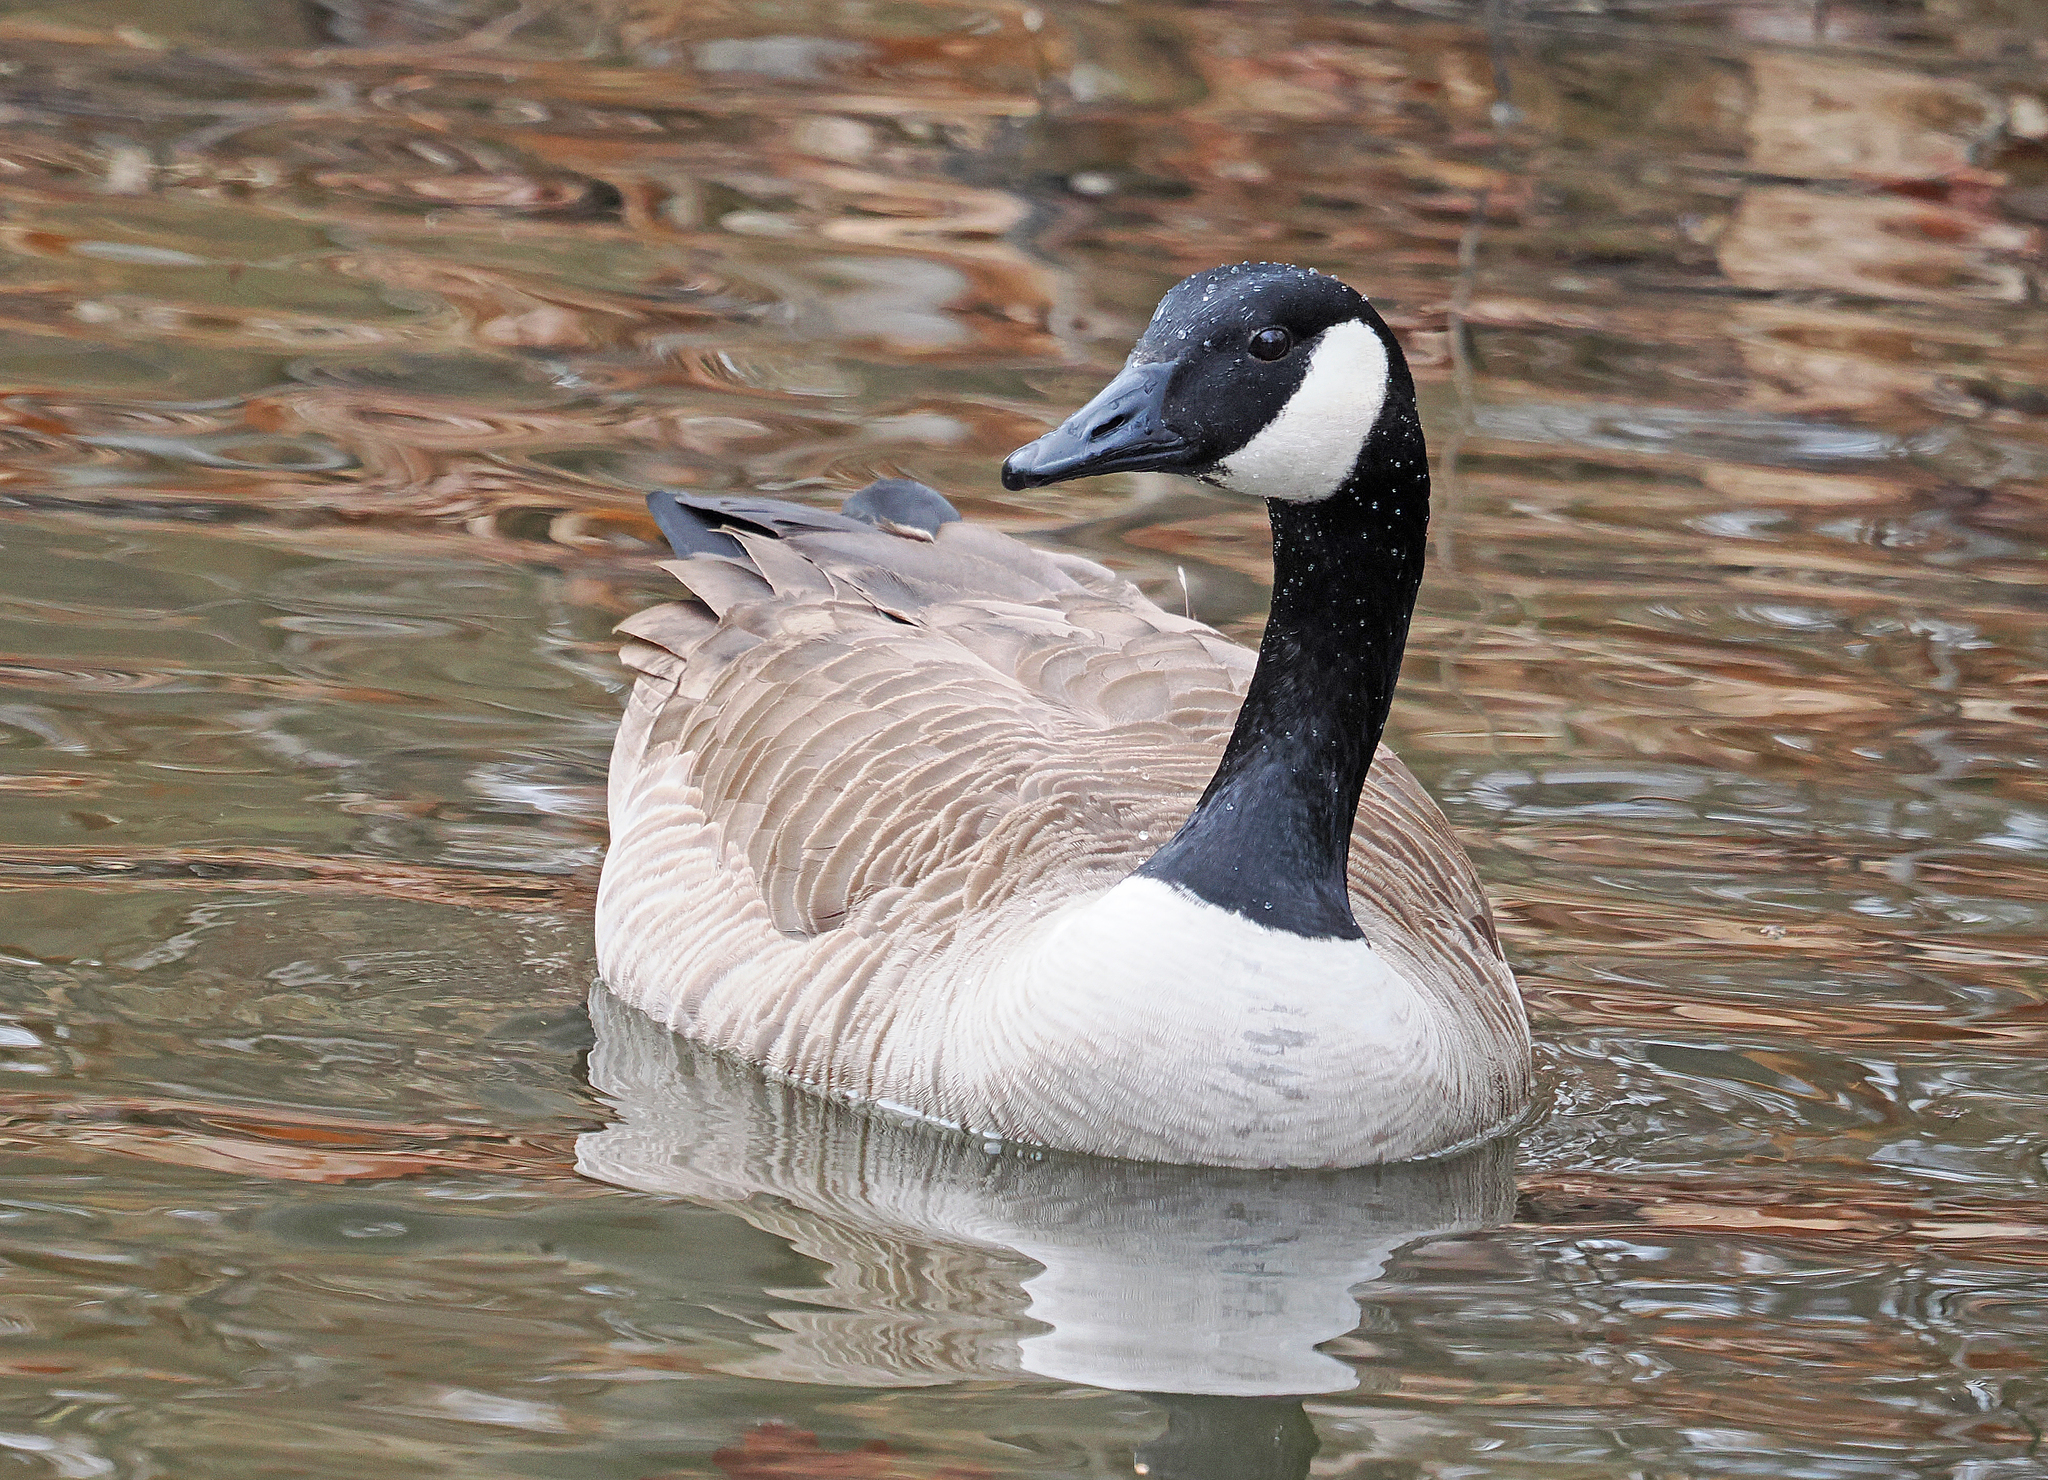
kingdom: Animalia
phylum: Chordata
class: Aves
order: Anseriformes
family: Anatidae
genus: Branta
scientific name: Branta canadensis
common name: Canada goose
